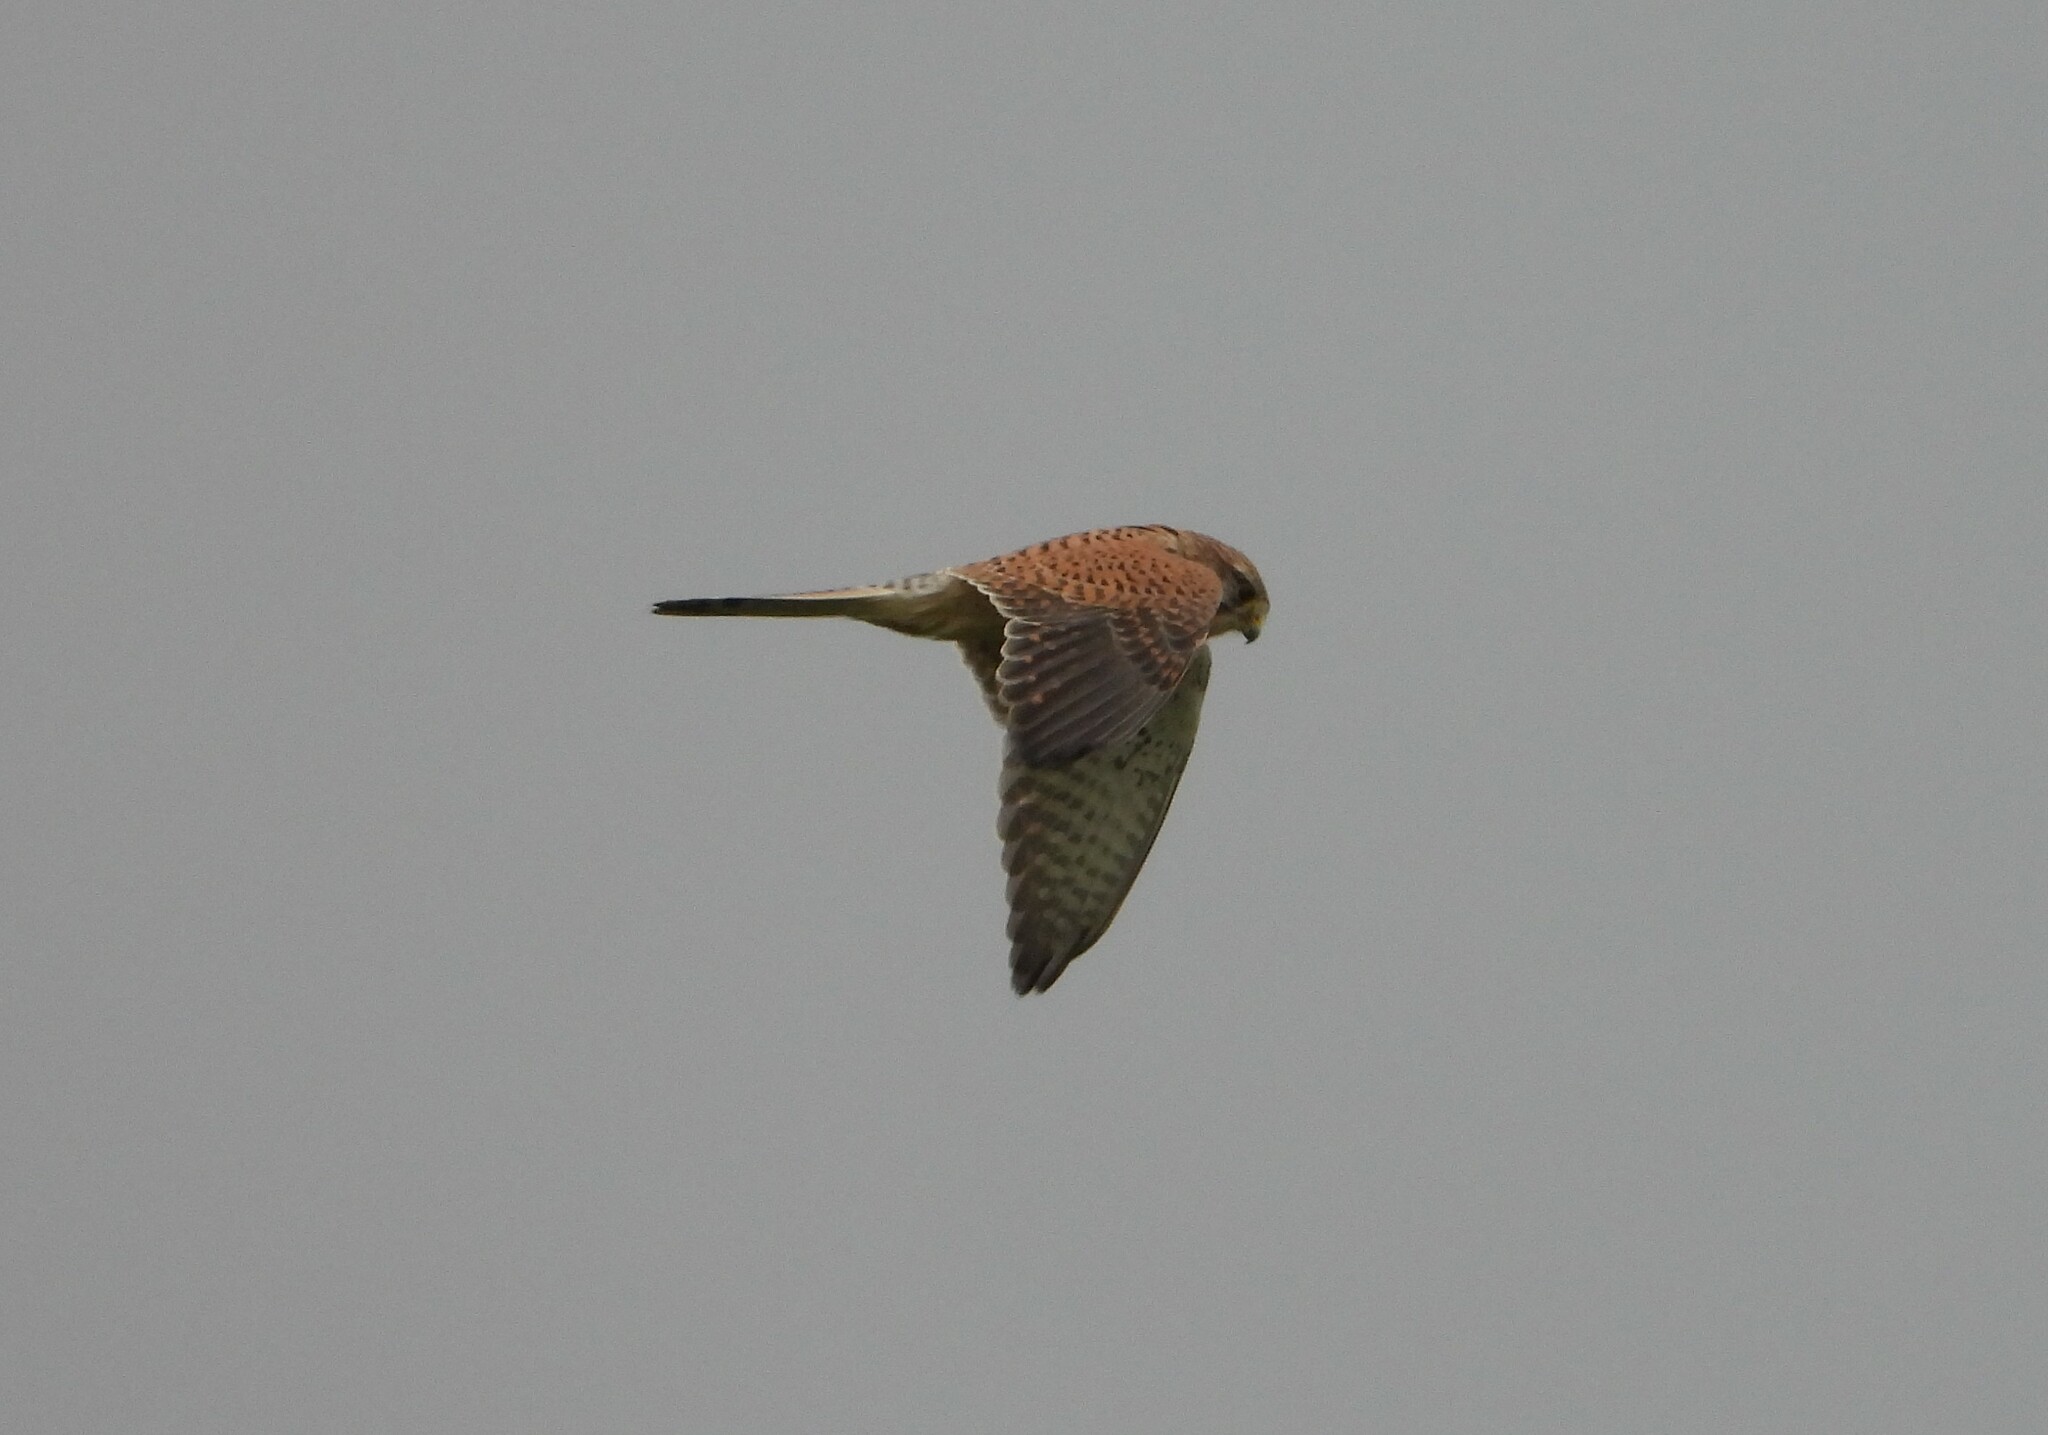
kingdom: Animalia
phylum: Chordata
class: Aves
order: Falconiformes
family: Falconidae
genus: Falco
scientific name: Falco tinnunculus
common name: Common kestrel
